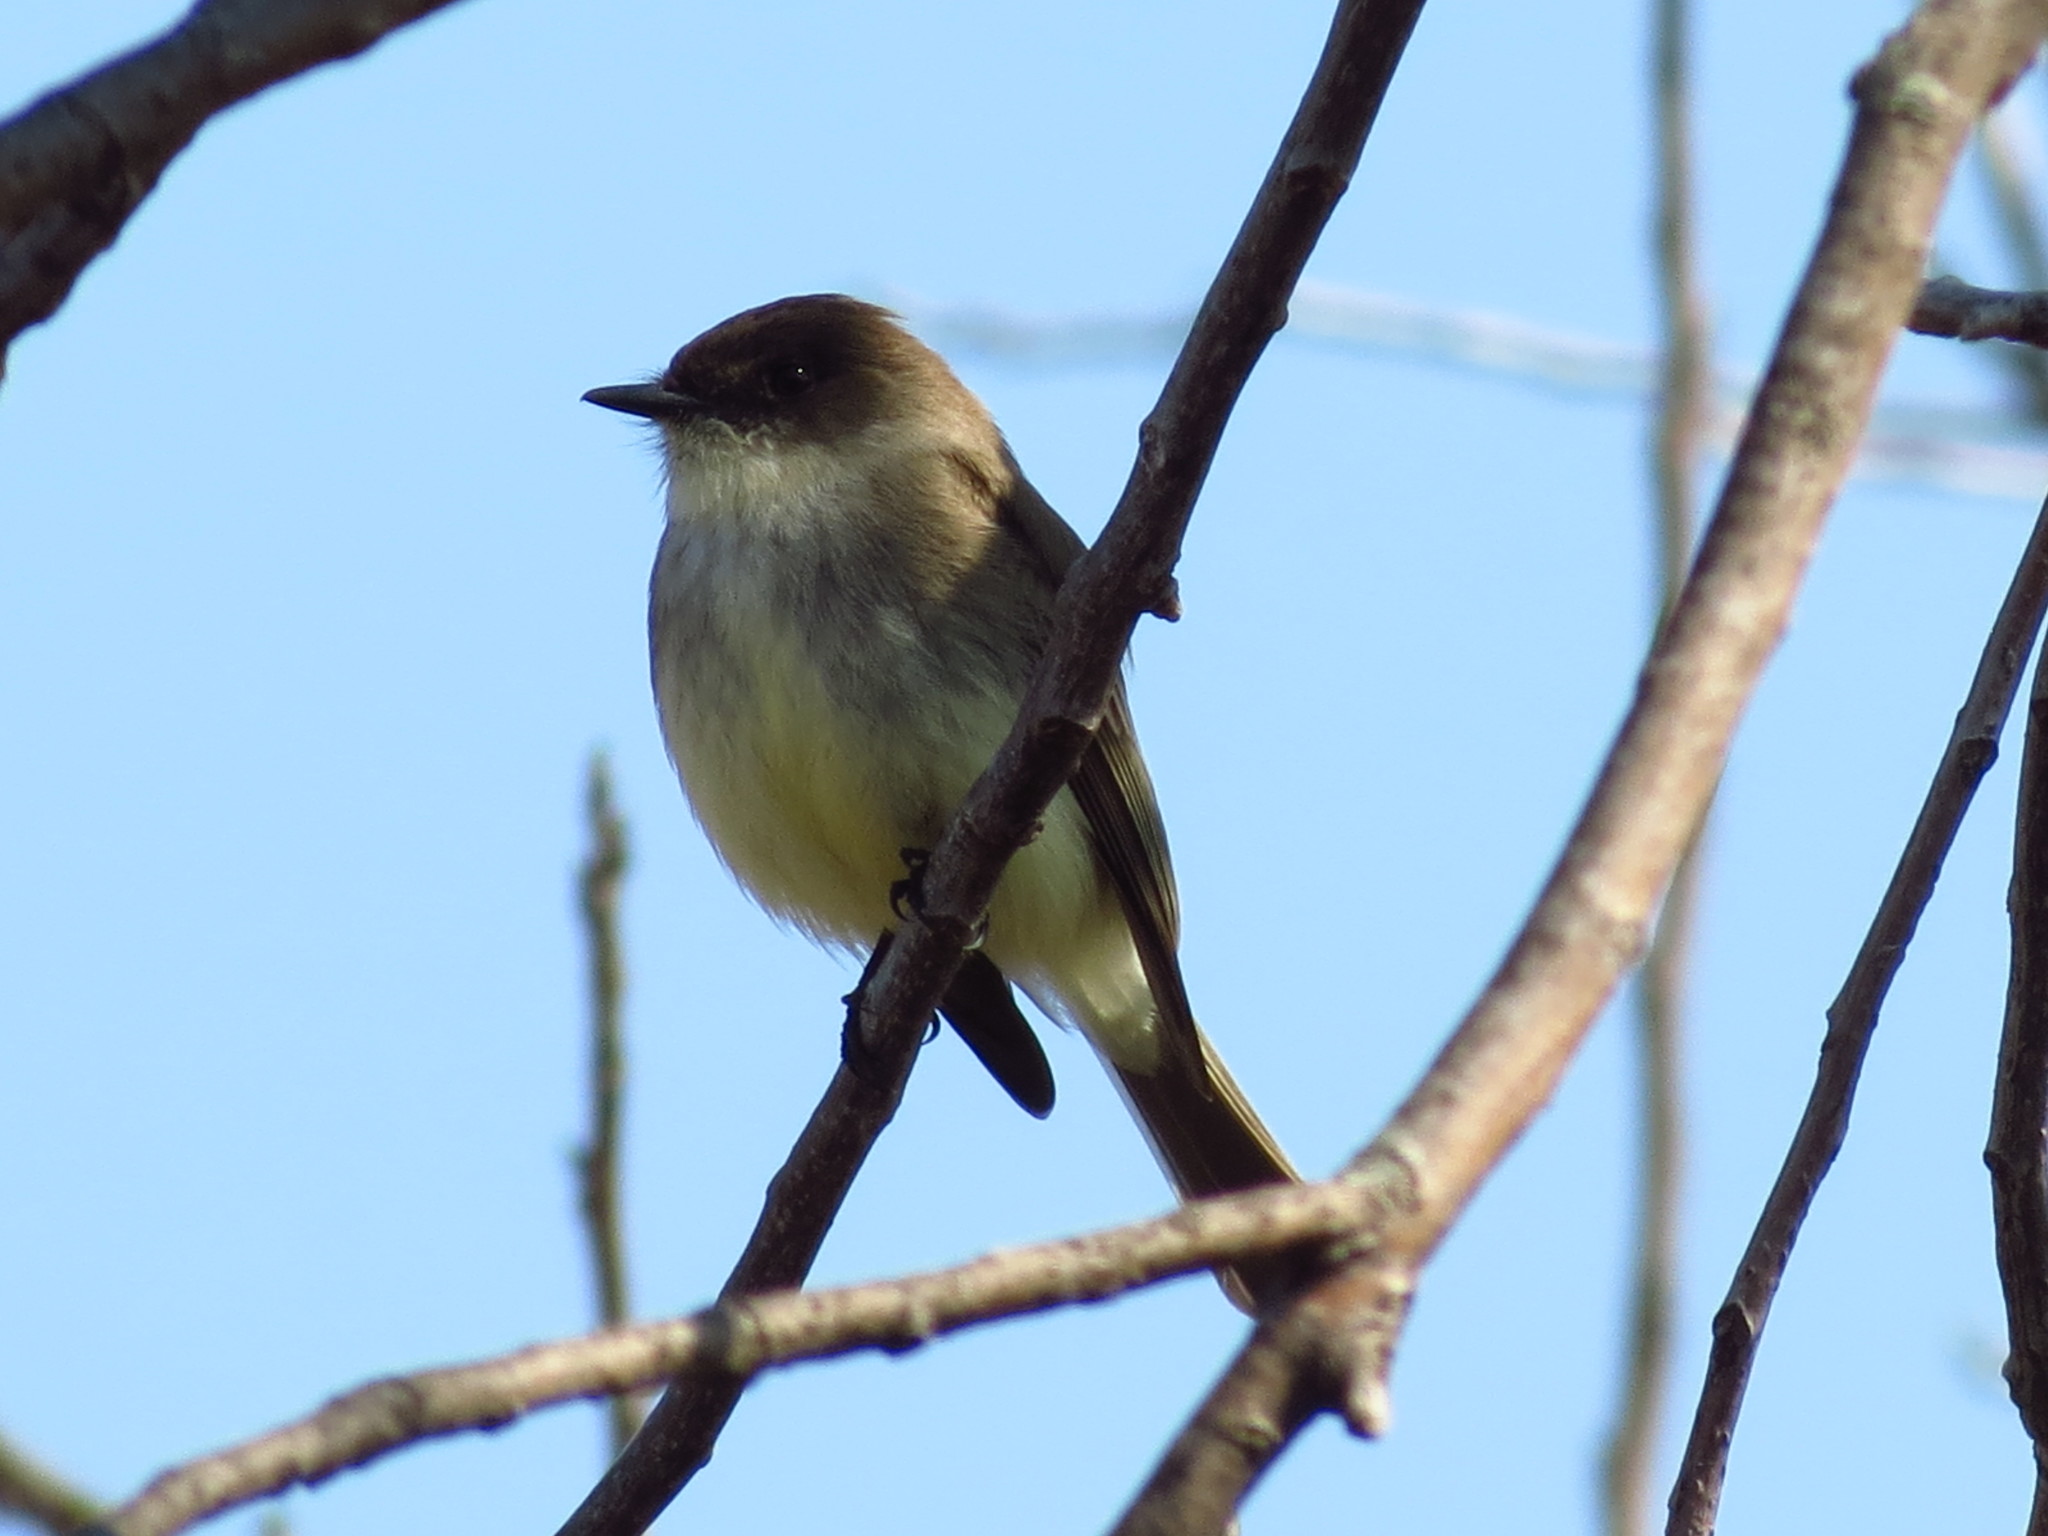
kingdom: Animalia
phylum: Chordata
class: Aves
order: Passeriformes
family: Tyrannidae
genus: Sayornis
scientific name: Sayornis phoebe
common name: Eastern phoebe
